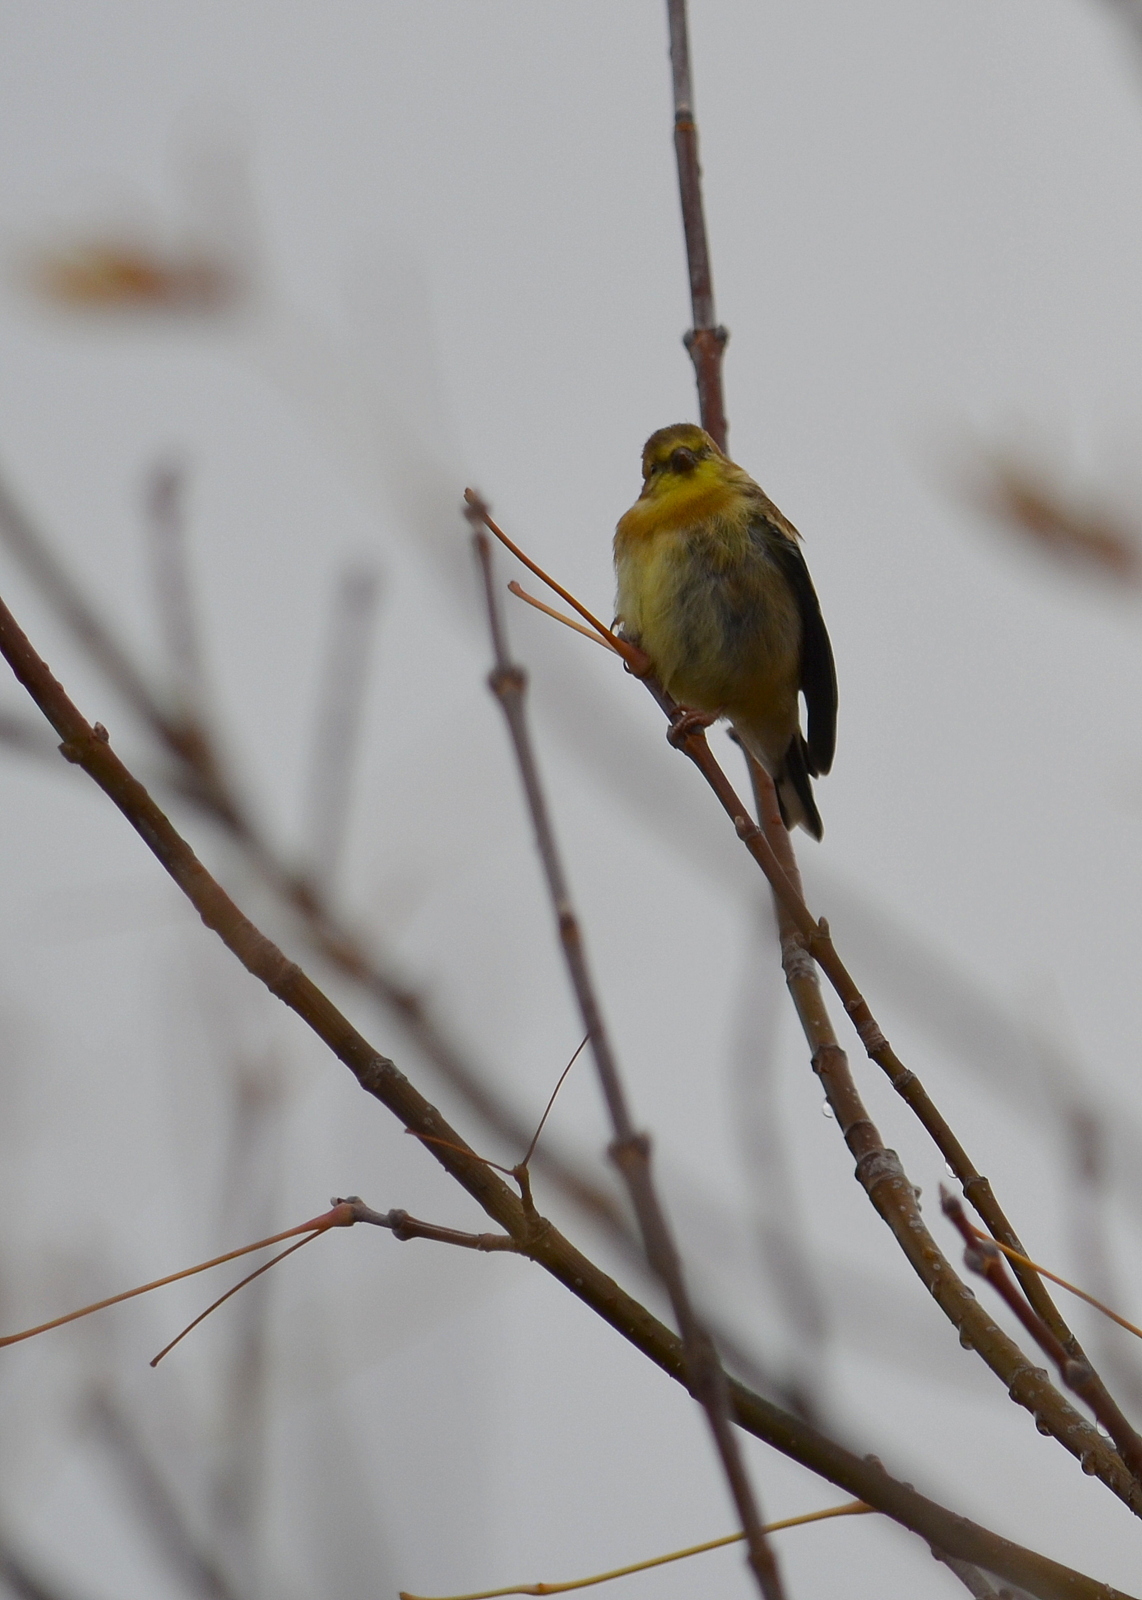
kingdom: Animalia
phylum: Chordata
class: Aves
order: Passeriformes
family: Fringillidae
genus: Spinus
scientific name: Spinus tristis
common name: American goldfinch
